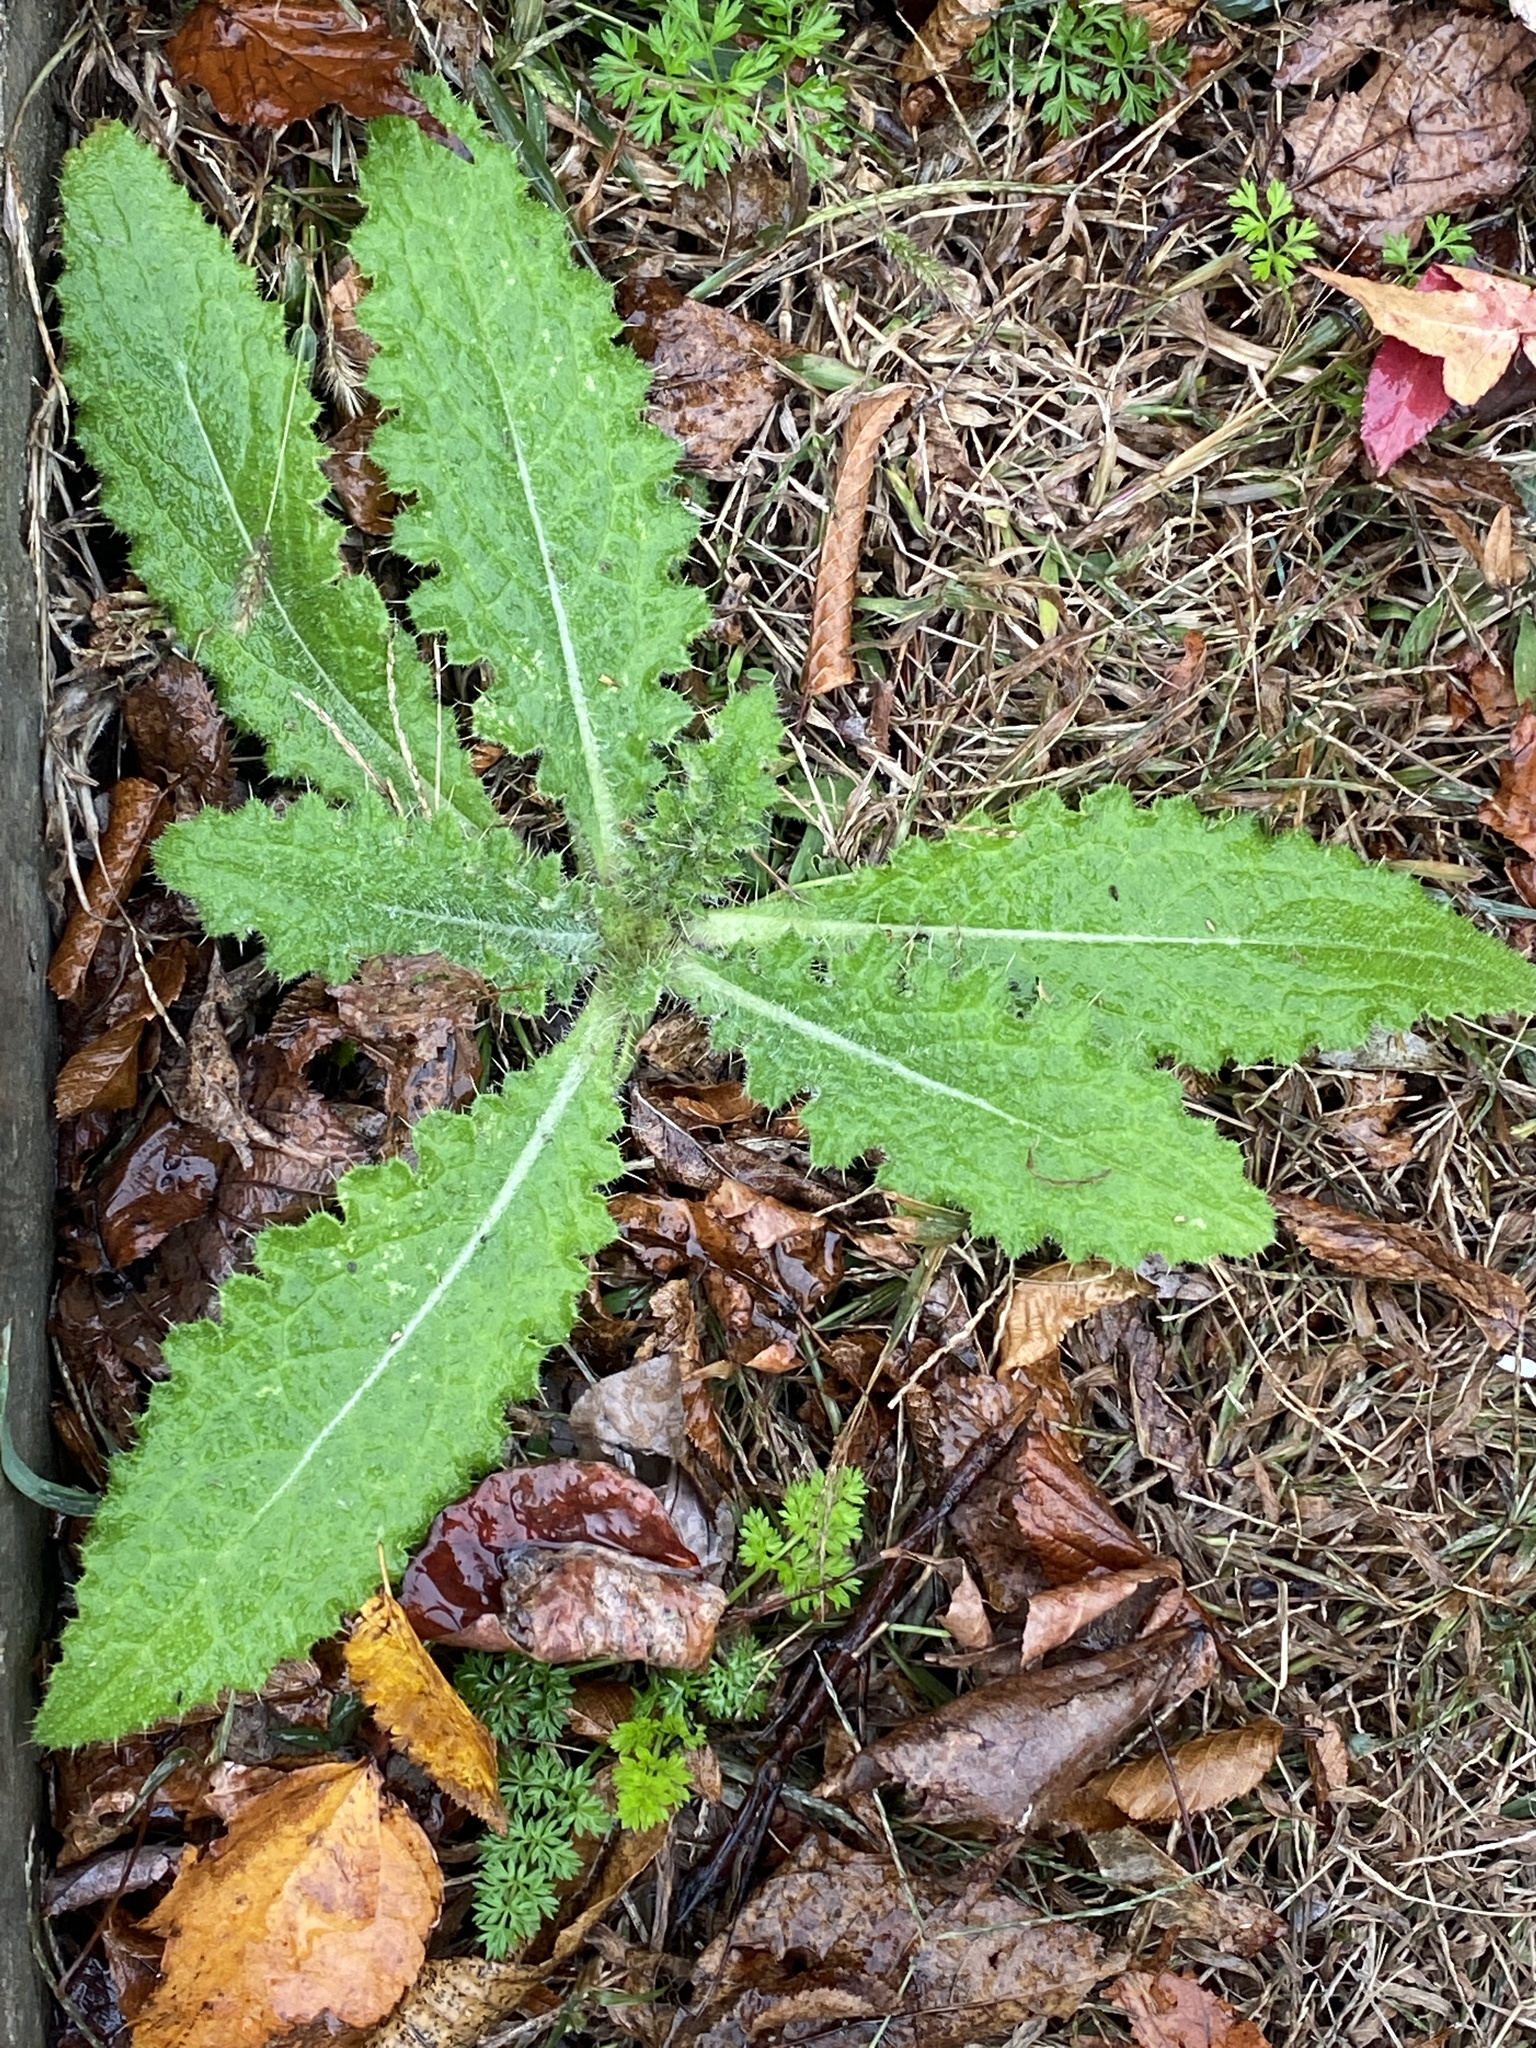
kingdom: Plantae
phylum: Tracheophyta
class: Magnoliopsida
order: Asterales
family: Asteraceae
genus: Cirsium
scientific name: Cirsium vulgare
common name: Bull thistle
